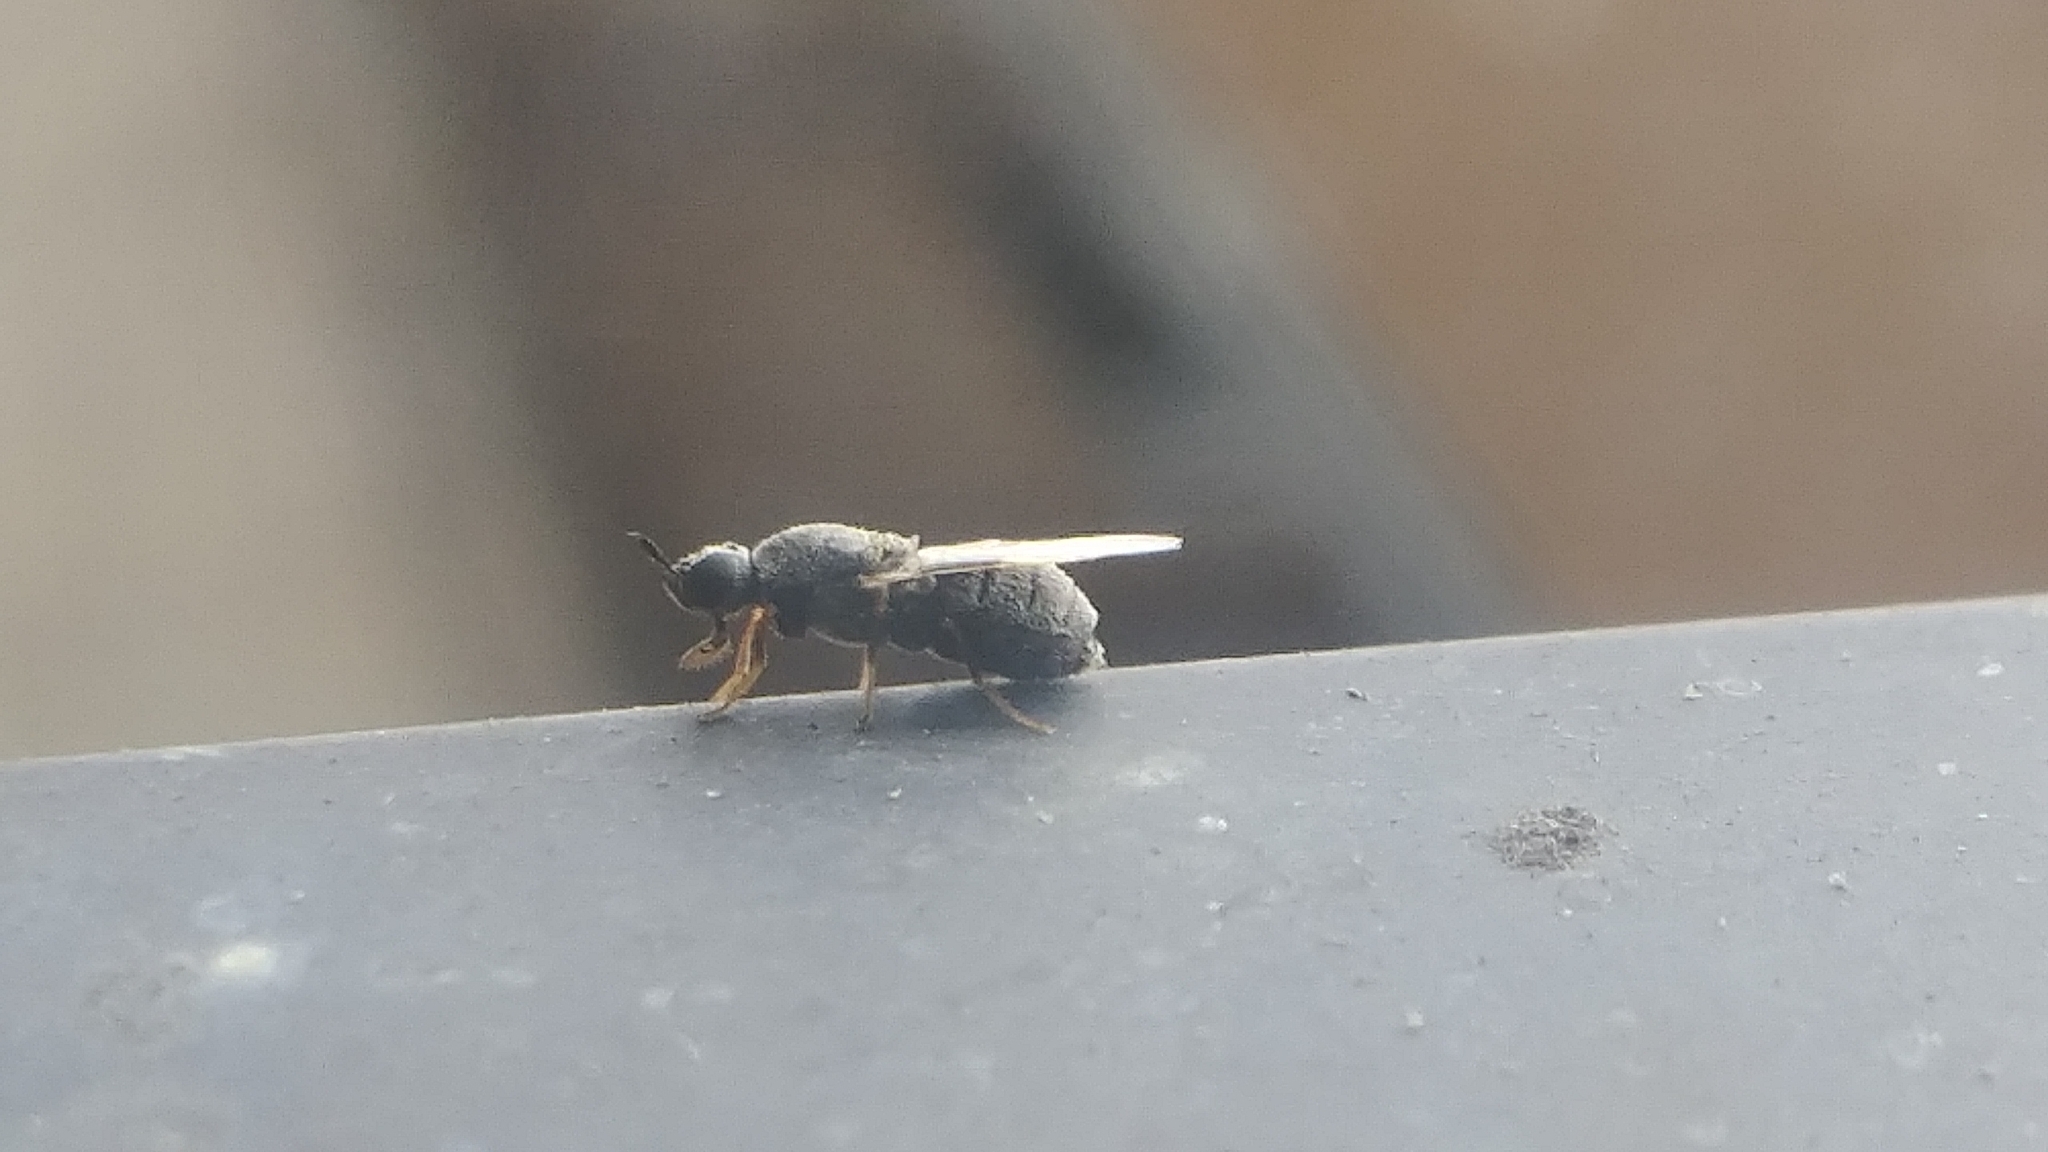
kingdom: Animalia
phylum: Arthropoda
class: Insecta
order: Diptera
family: Stratiomyidae
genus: Nemotelus
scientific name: Nemotelus bruesii
